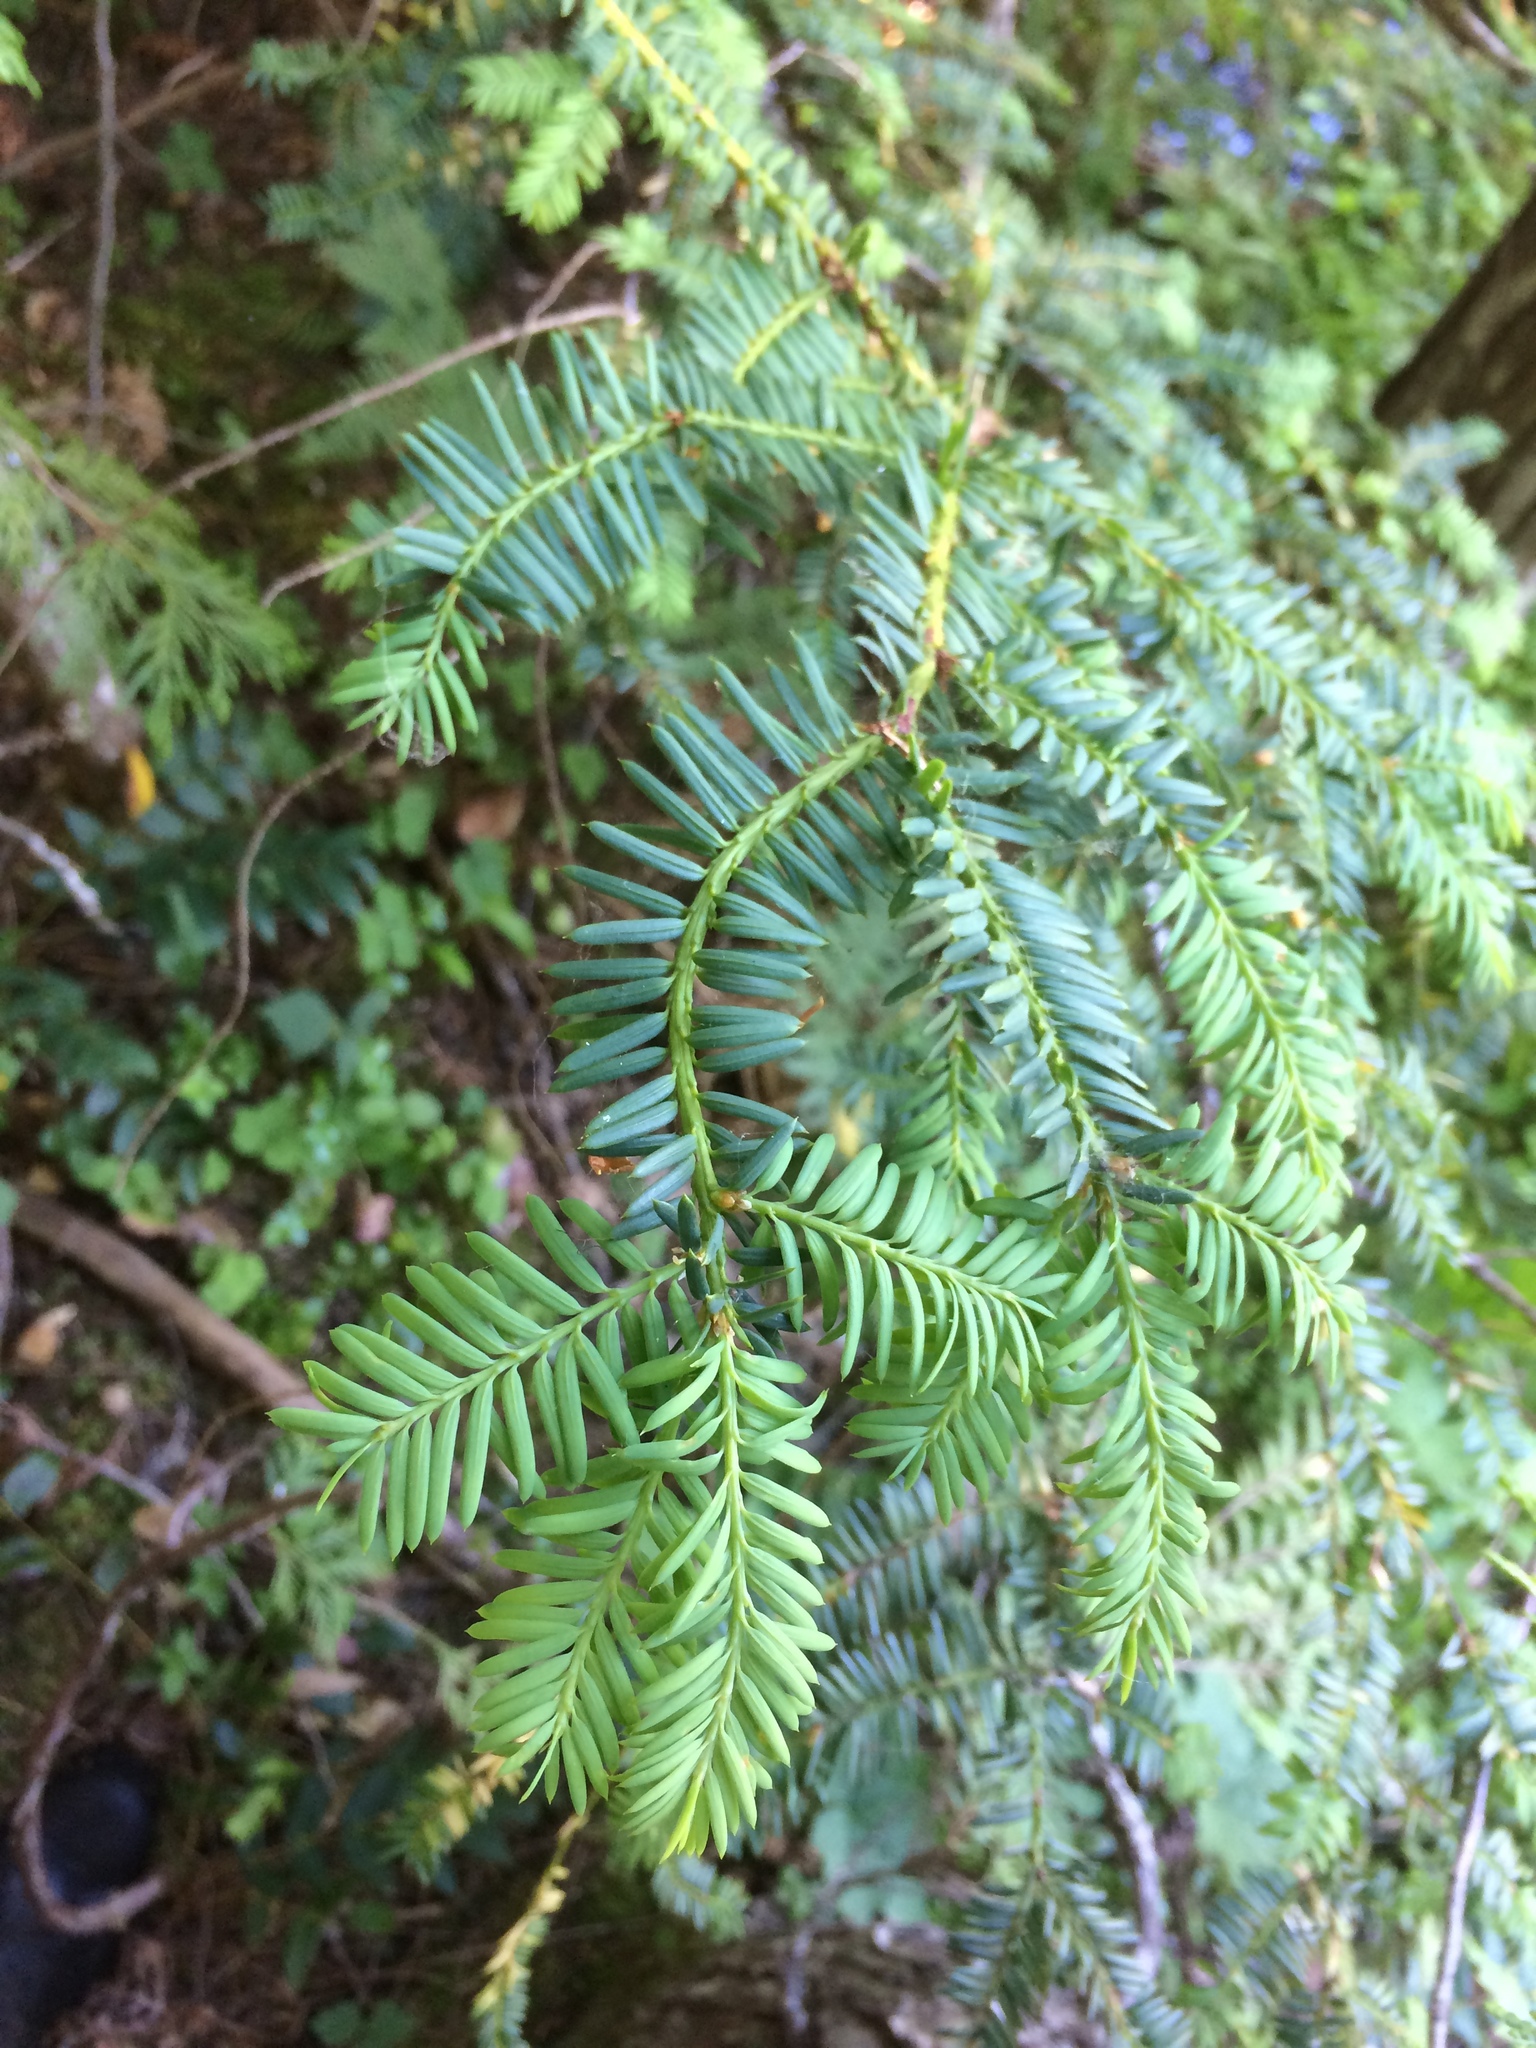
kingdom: Plantae
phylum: Tracheophyta
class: Pinopsida
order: Pinales
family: Taxaceae
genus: Taxus
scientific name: Taxus brevifolia
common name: Pacific yew
